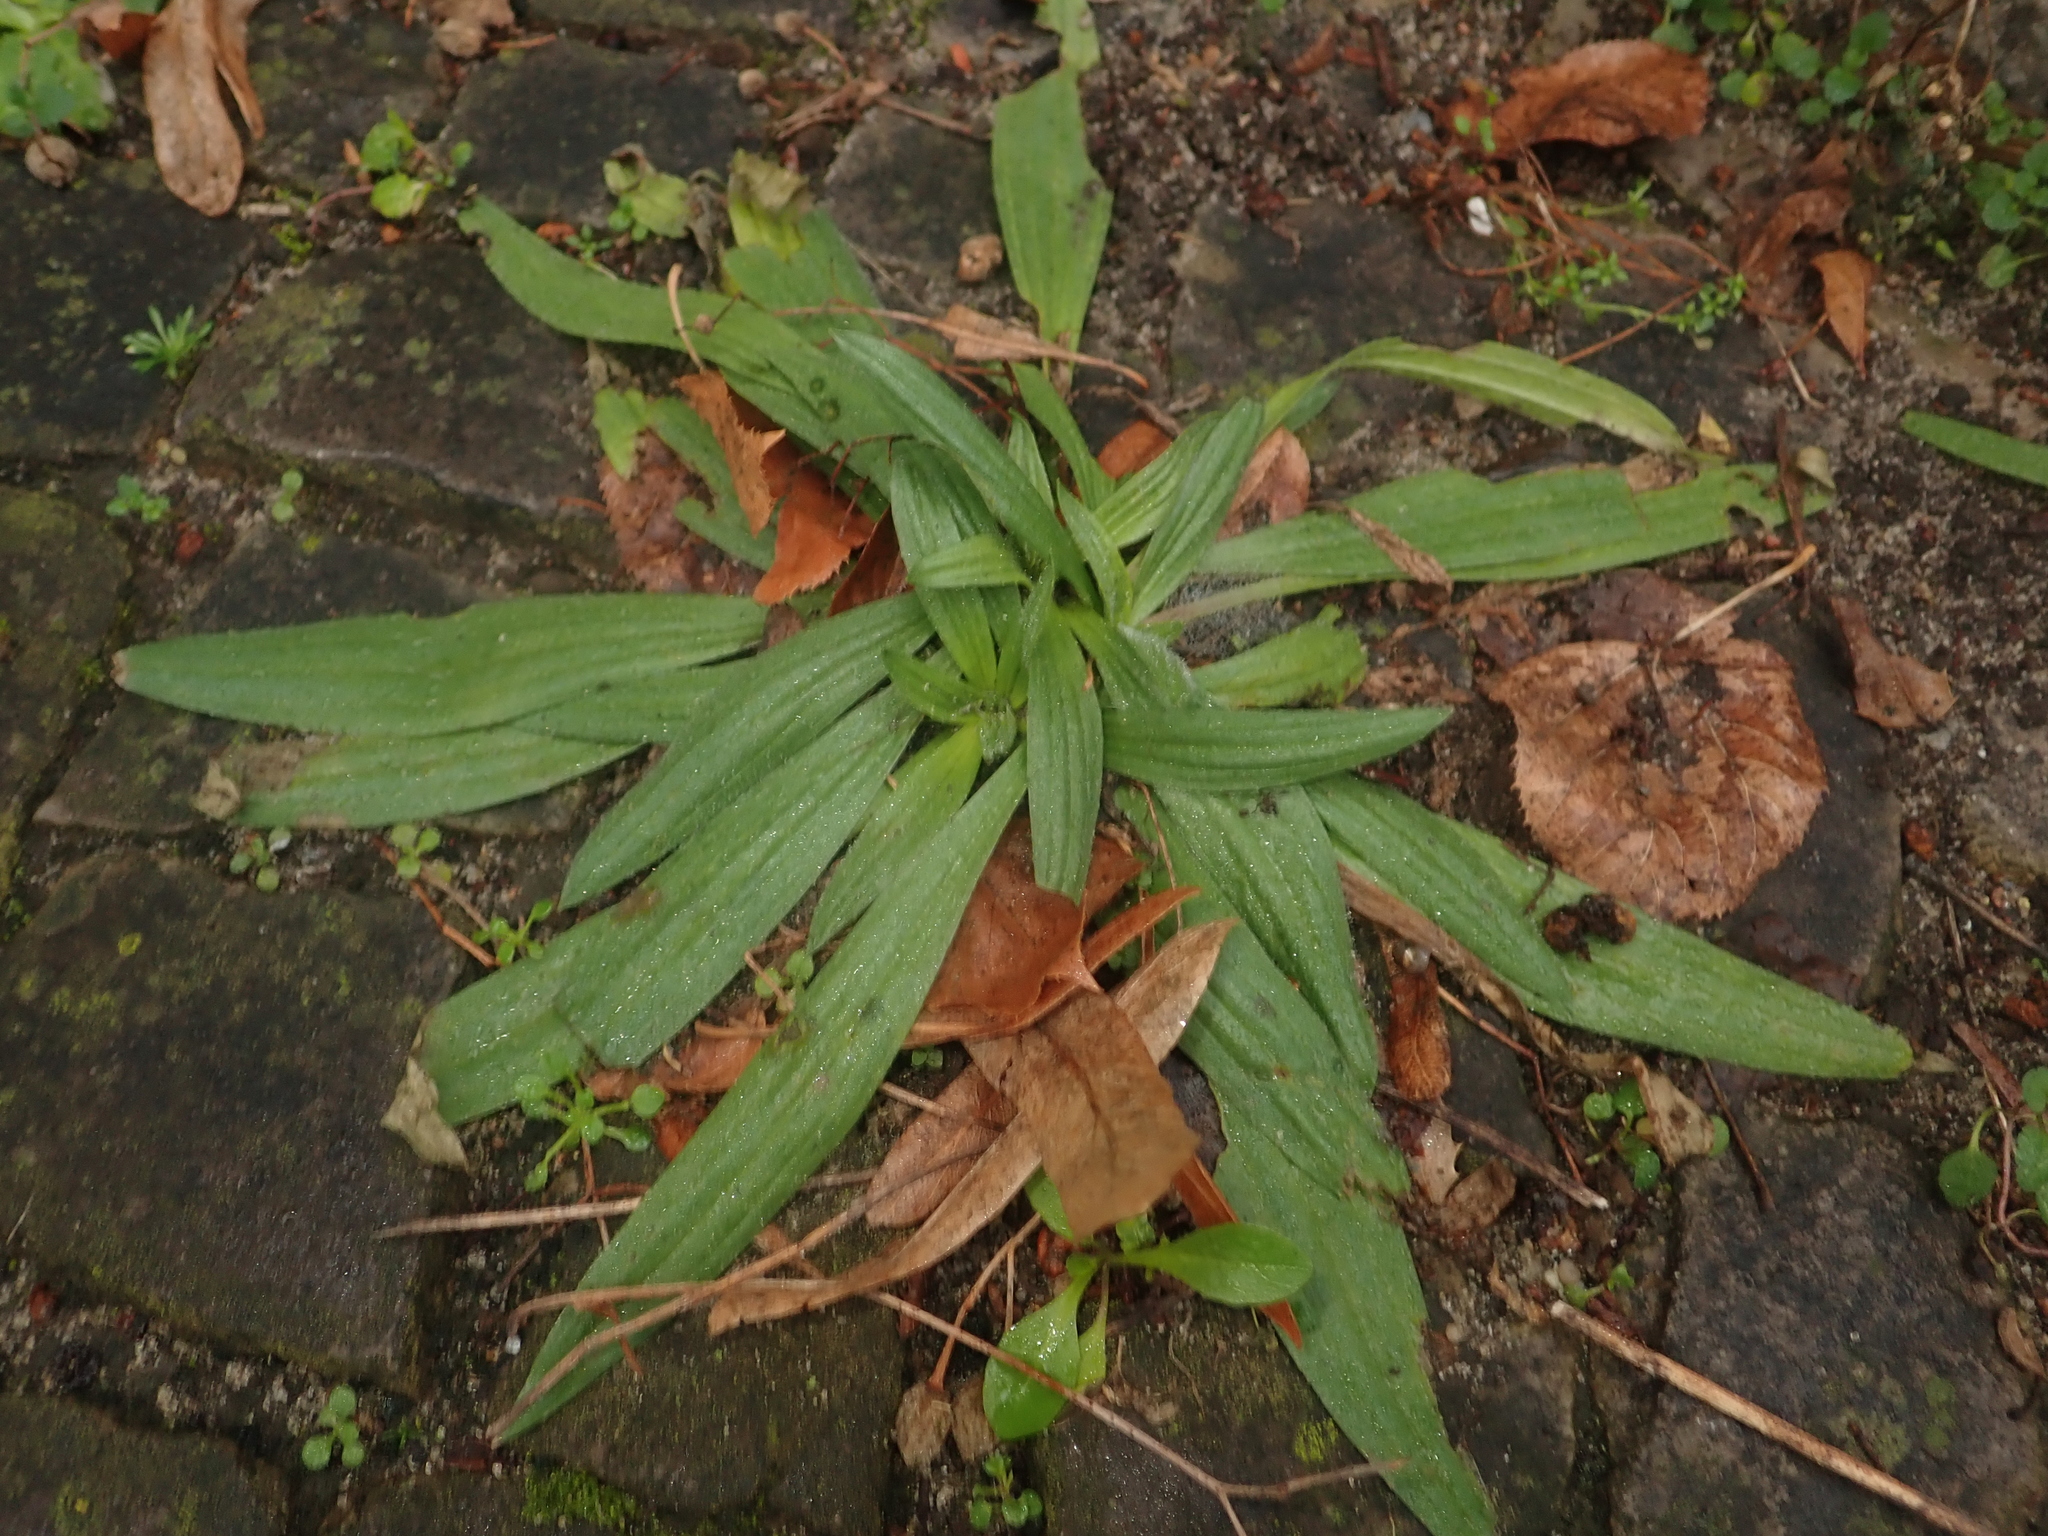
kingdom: Plantae
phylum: Tracheophyta
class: Magnoliopsida
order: Lamiales
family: Plantaginaceae
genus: Plantago
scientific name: Plantago lanceolata
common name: Ribwort plantain
